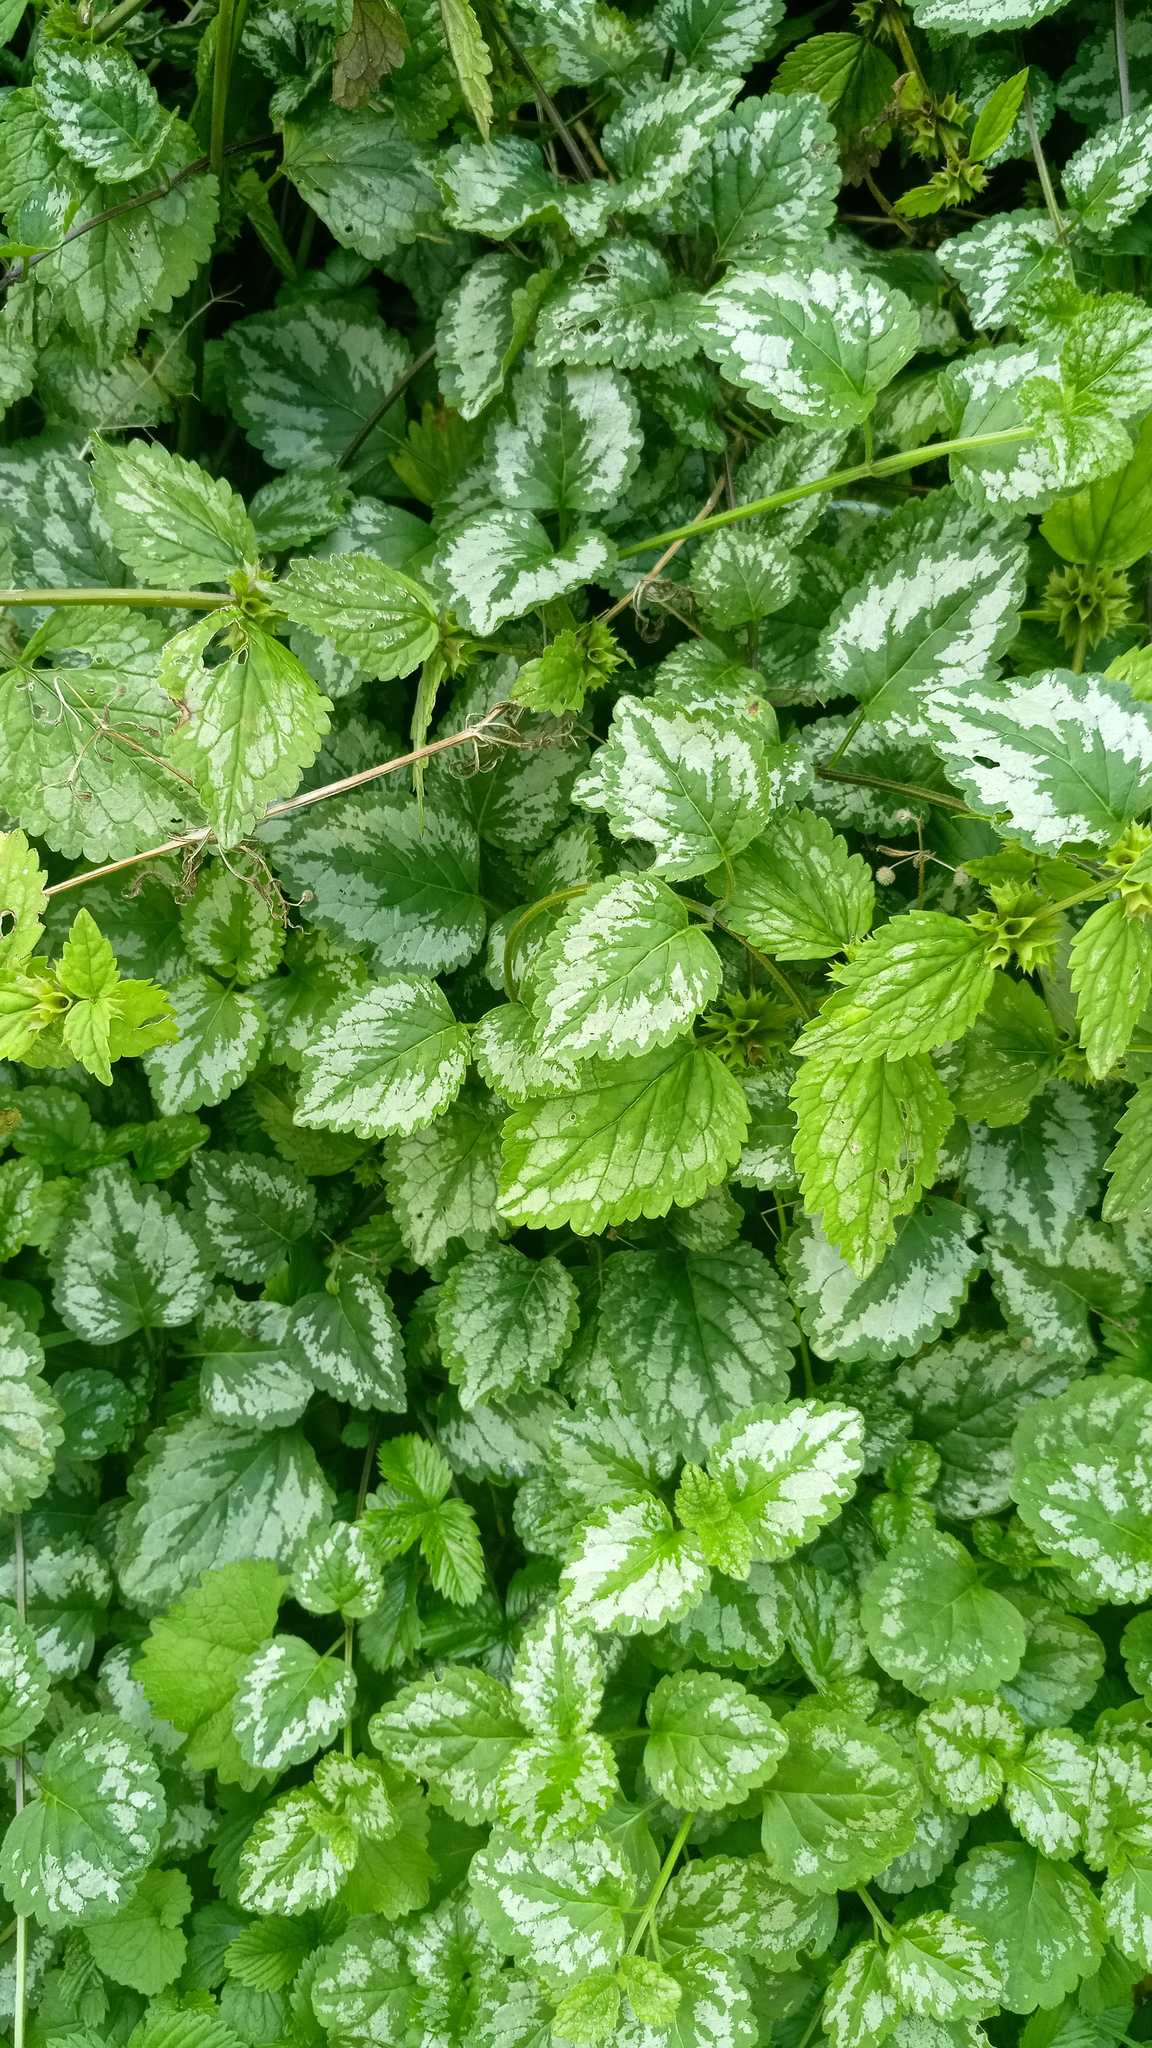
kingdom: Plantae
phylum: Tracheophyta
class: Magnoliopsida
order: Lamiales
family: Lamiaceae
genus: Lamium
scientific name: Lamium galeobdolon
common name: Yellow archangel
